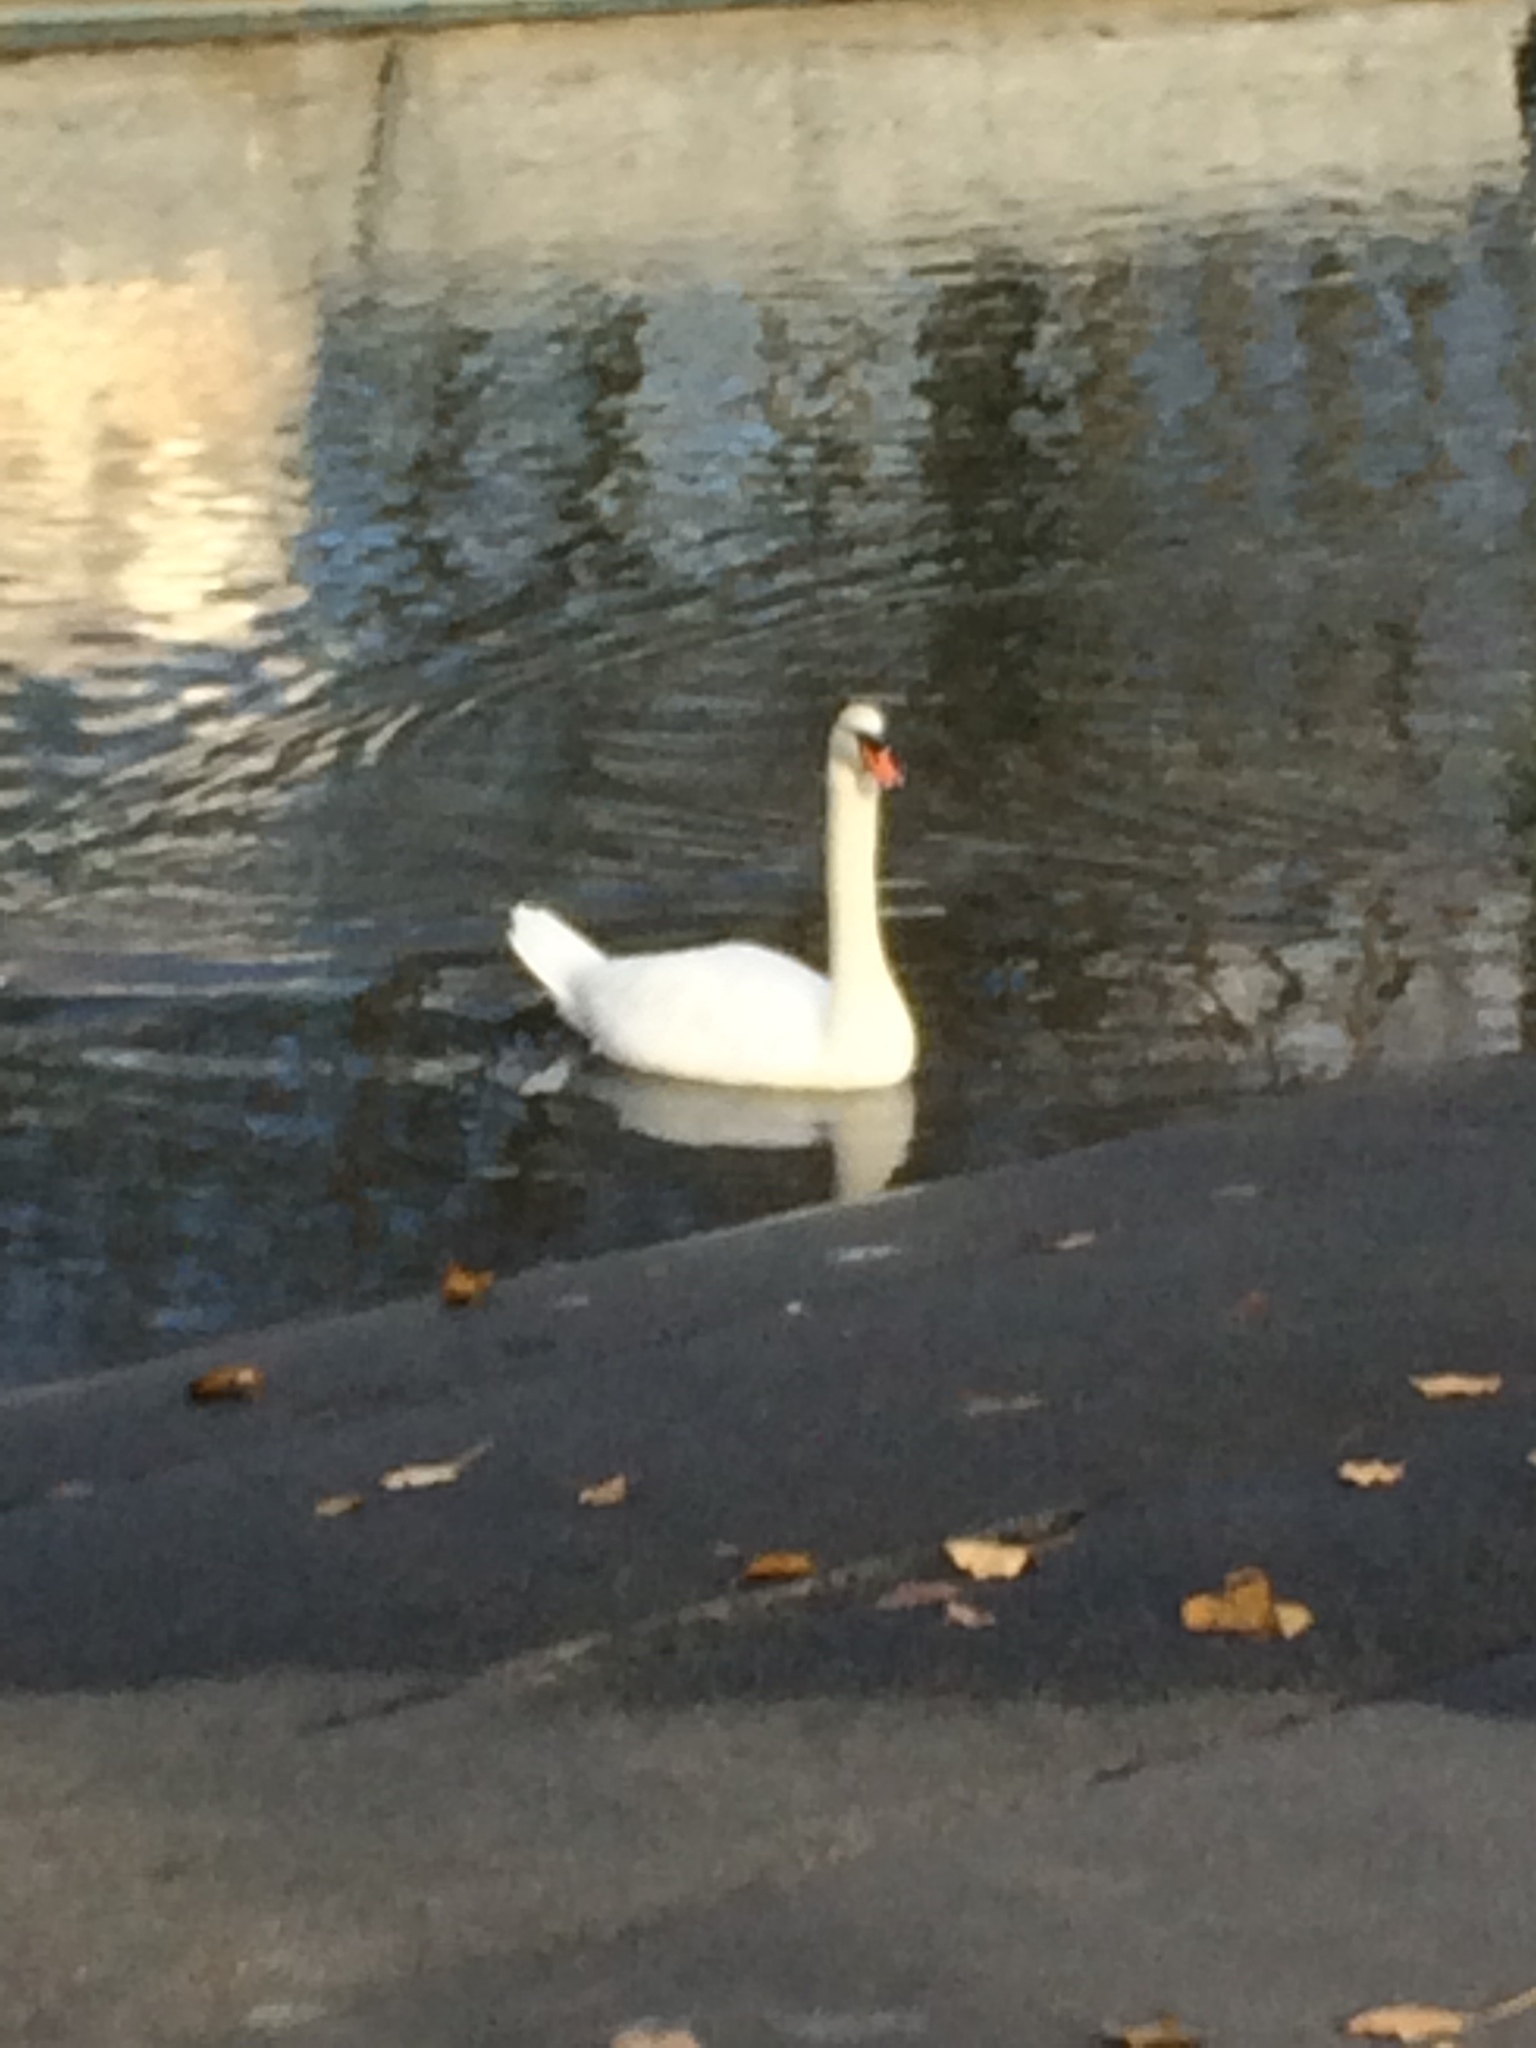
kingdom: Animalia
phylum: Chordata
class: Aves
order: Anseriformes
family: Anatidae
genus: Cygnus
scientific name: Cygnus olor
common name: Mute swan
